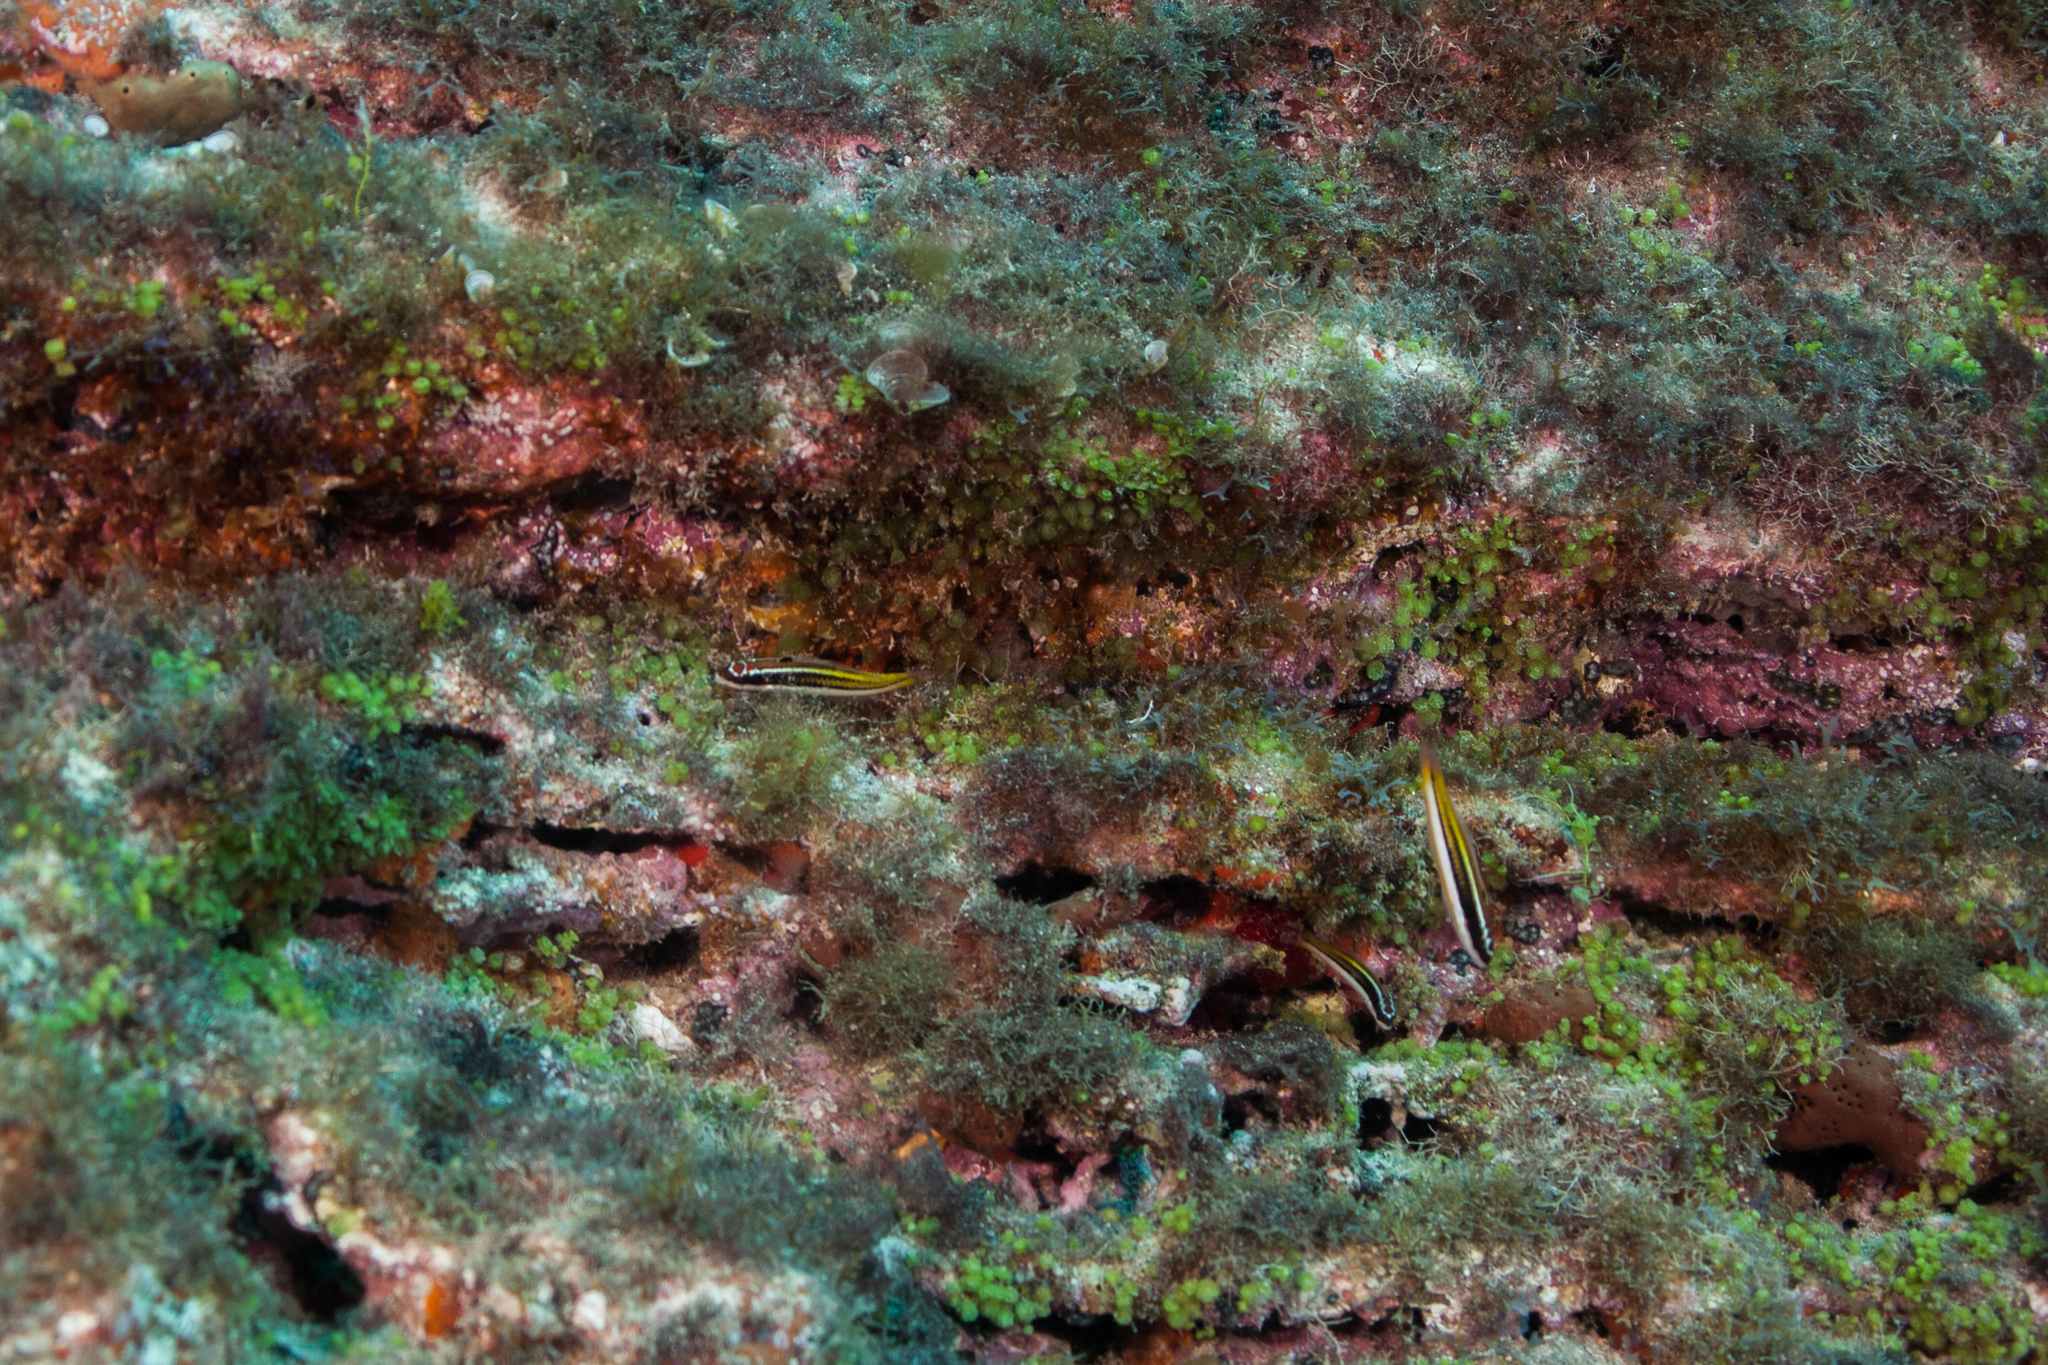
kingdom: Animalia
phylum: Chordata
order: Perciformes
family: Labridae
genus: Thalassoma
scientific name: Thalassoma noronhanum
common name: Noronha wrasse
